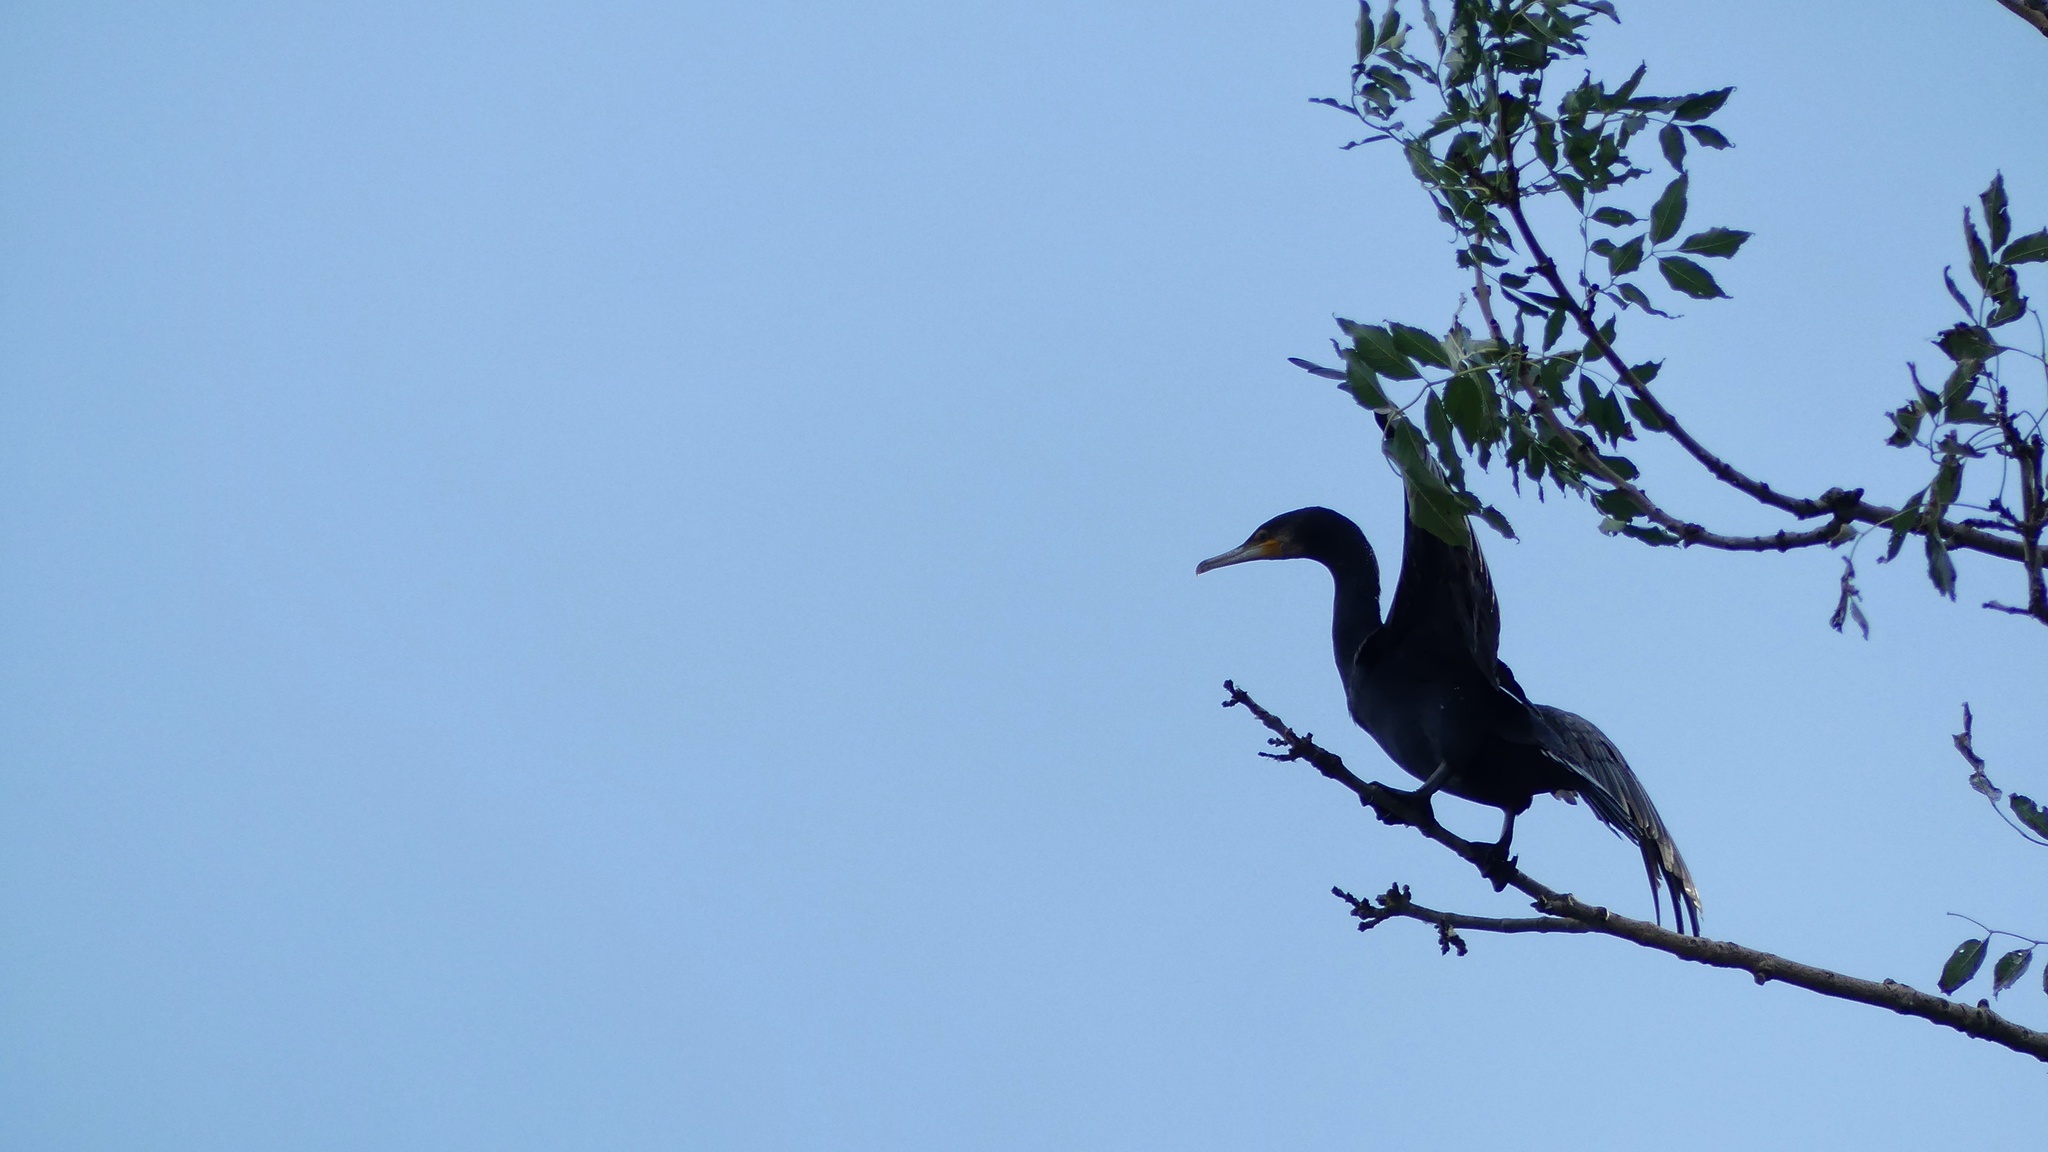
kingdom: Animalia
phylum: Chordata
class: Aves
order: Suliformes
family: Phalacrocoracidae
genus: Phalacrocorax
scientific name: Phalacrocorax carbo
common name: Great cormorant
